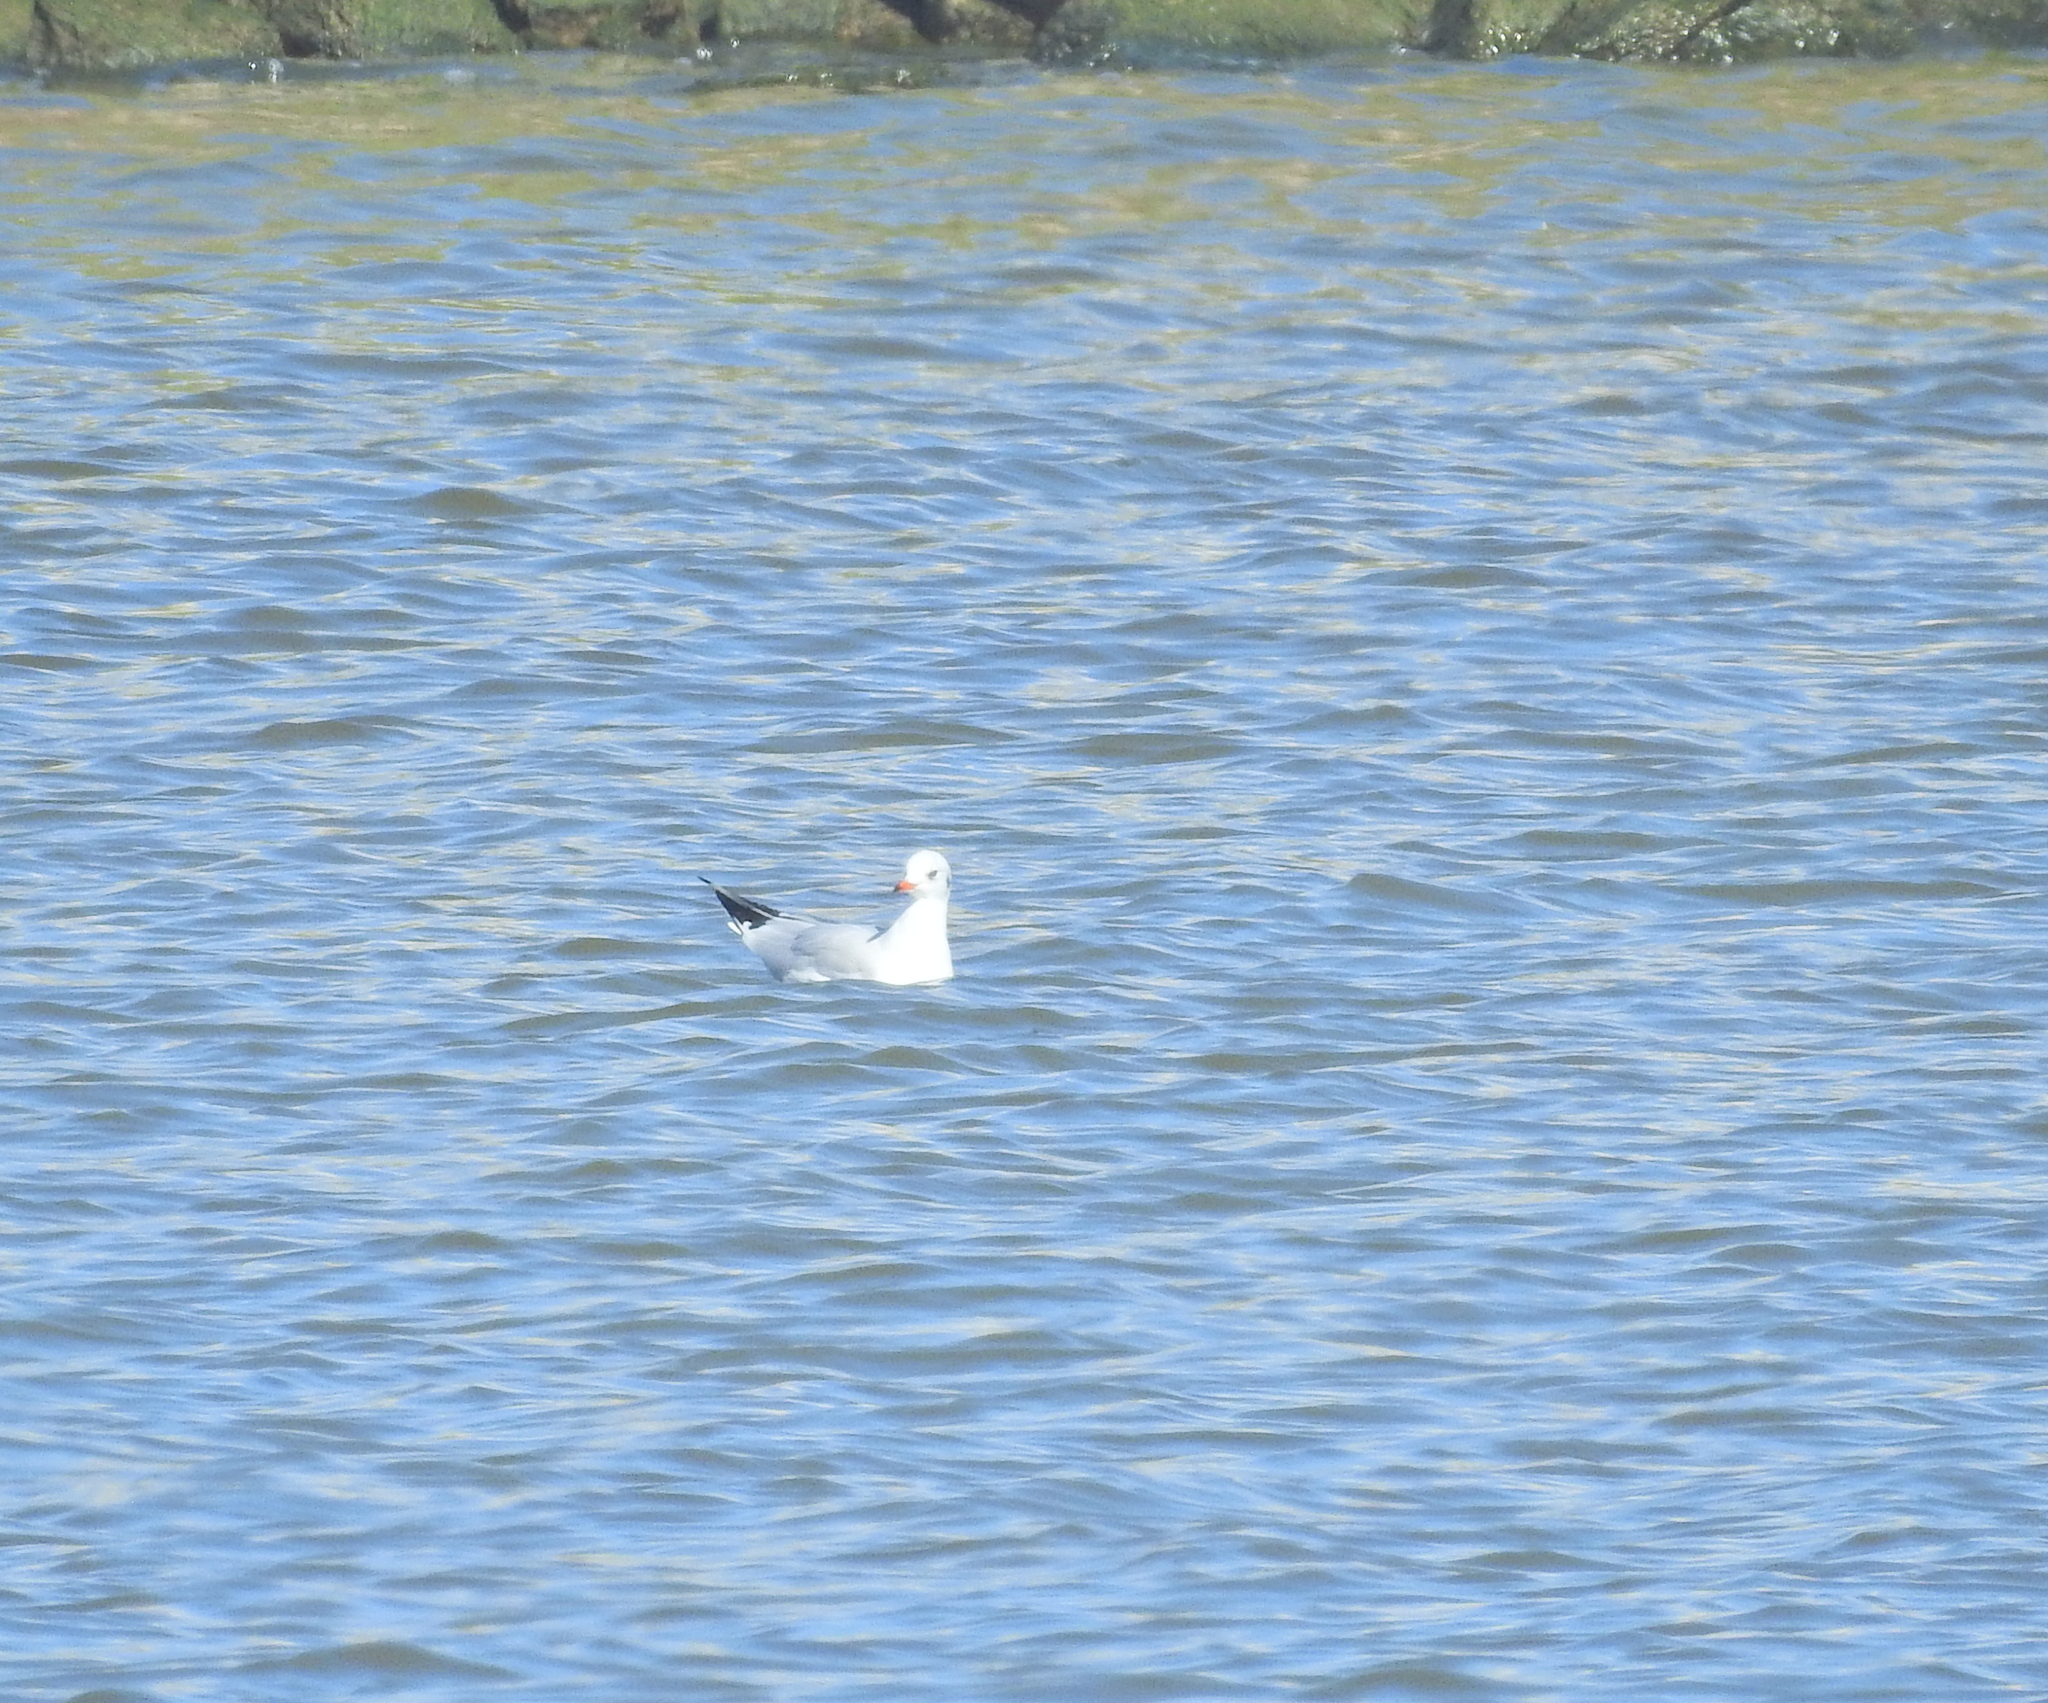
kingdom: Animalia
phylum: Chordata
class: Aves
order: Charadriiformes
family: Laridae
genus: Chroicocephalus
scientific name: Chroicocephalus ridibundus
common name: Black-headed gull
